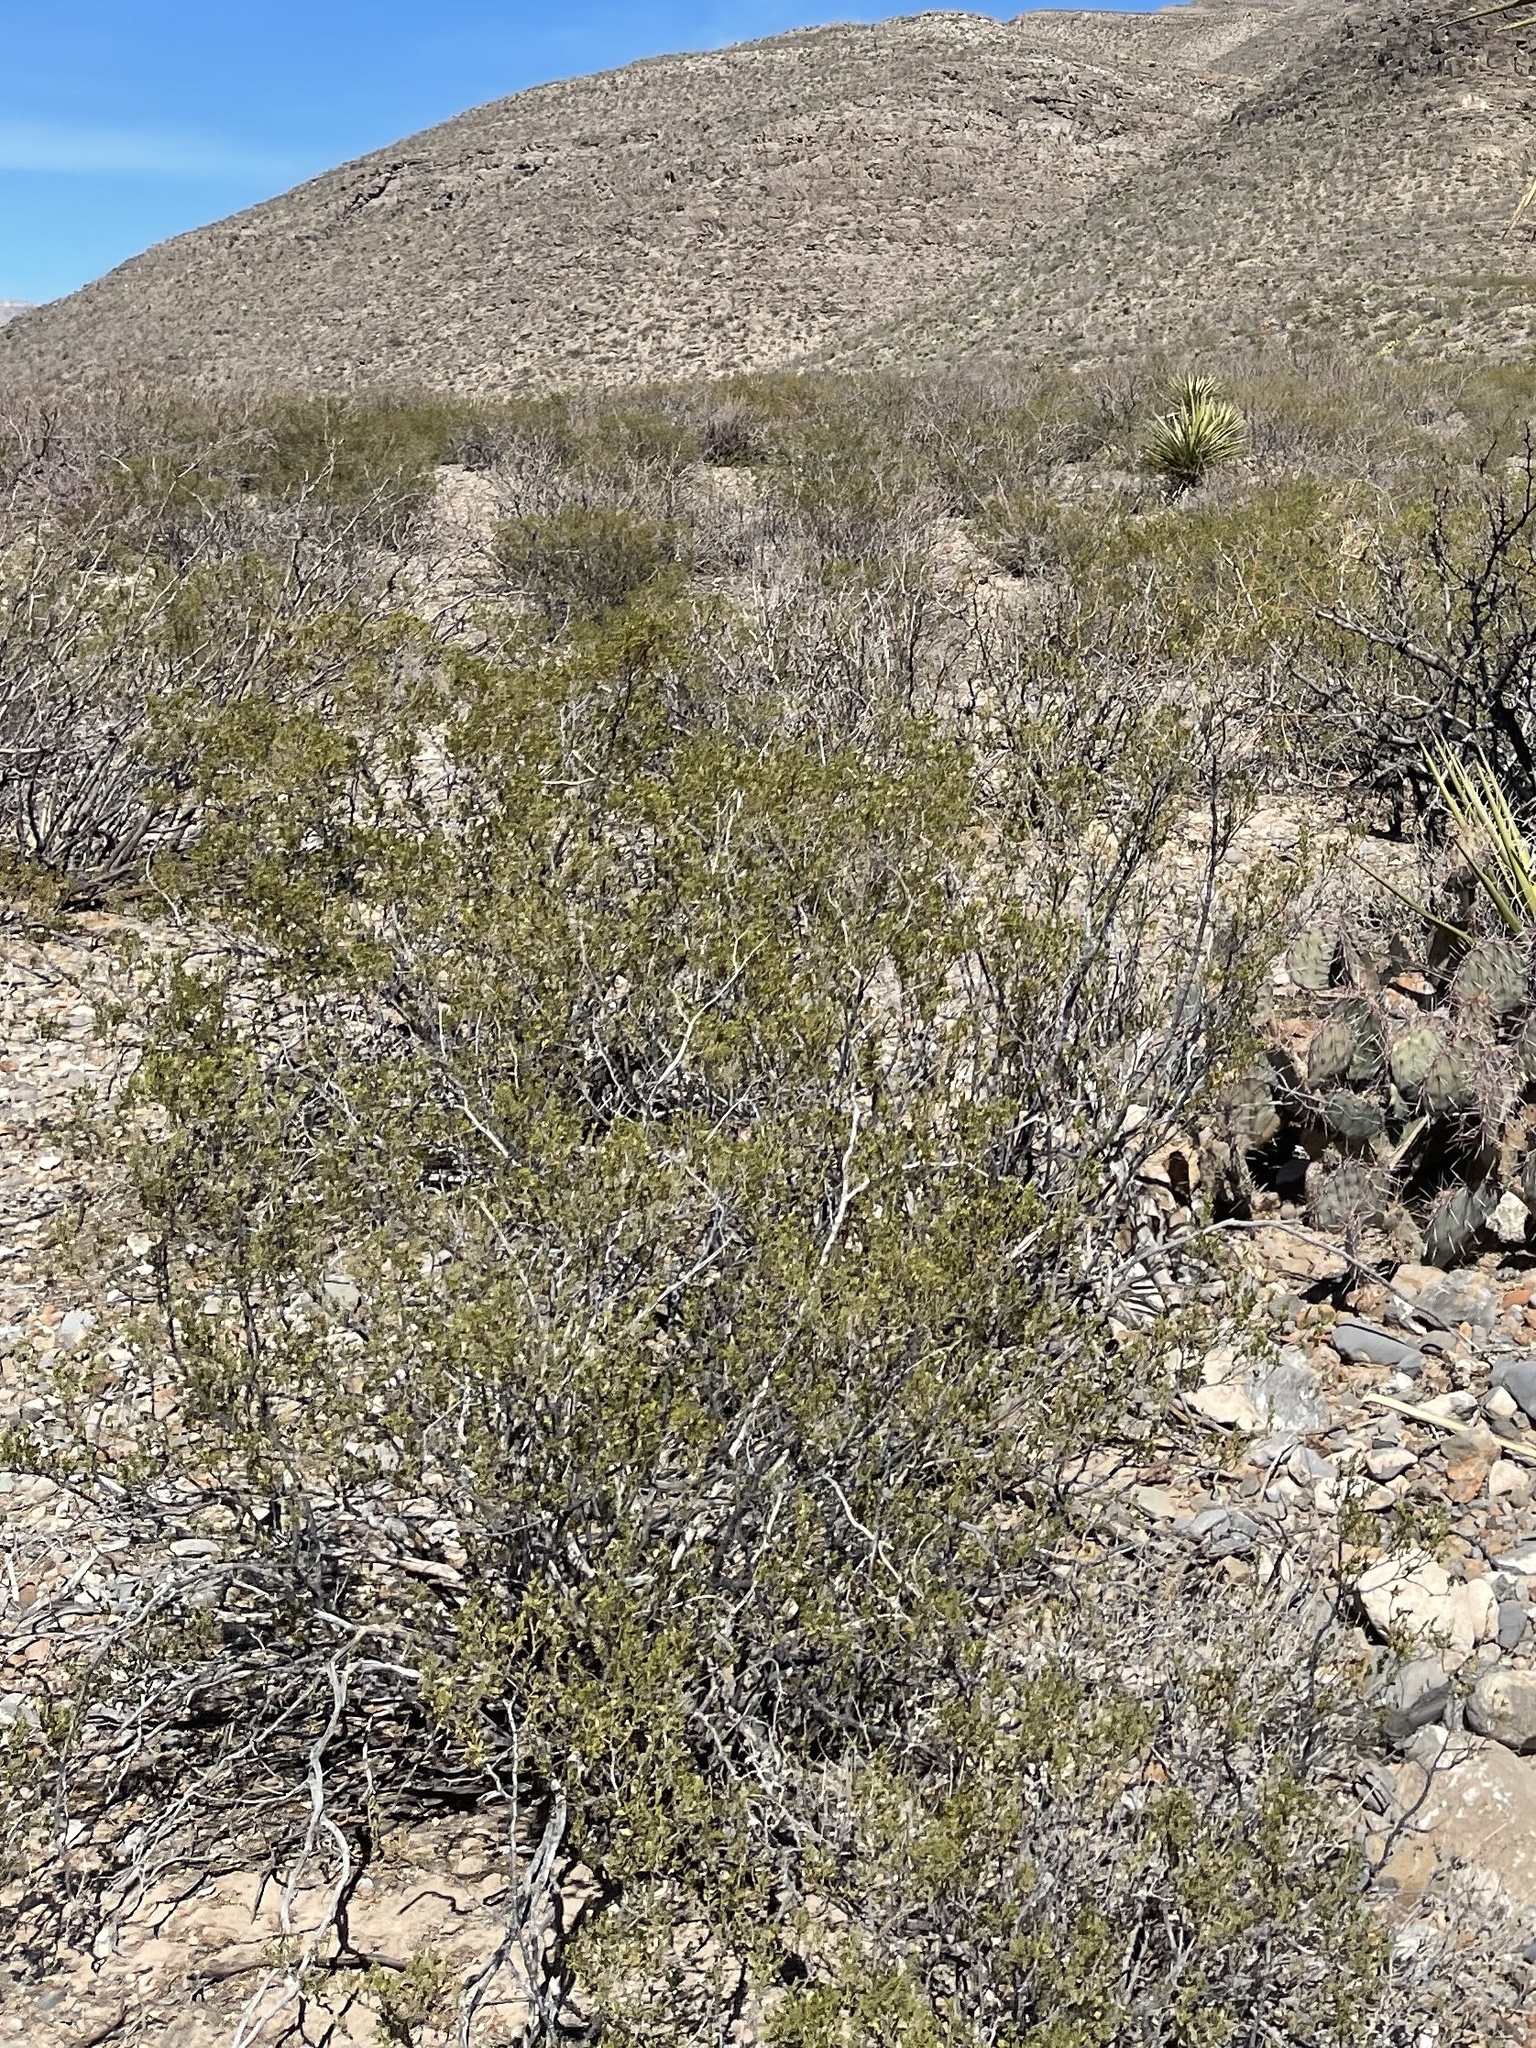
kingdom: Plantae
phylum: Tracheophyta
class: Magnoliopsida
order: Zygophyllales
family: Zygophyllaceae
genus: Larrea
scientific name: Larrea tridentata
